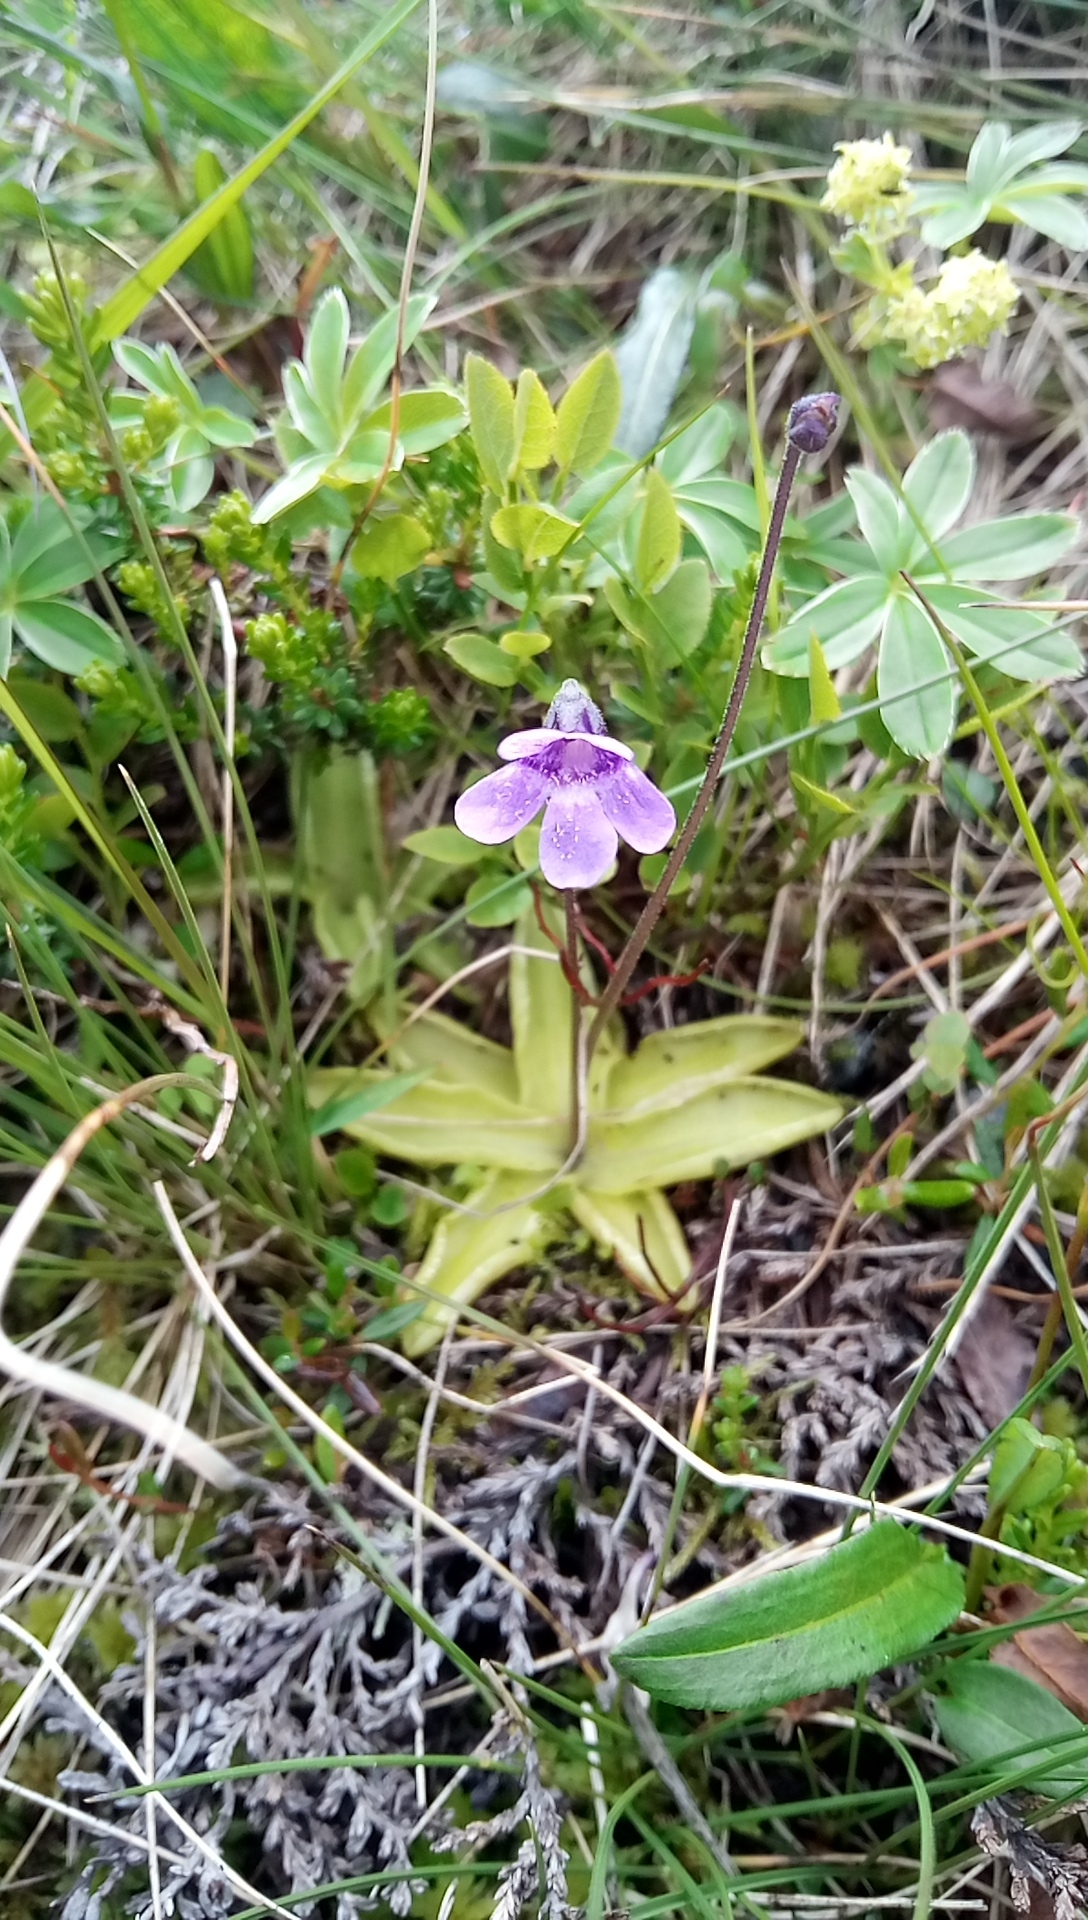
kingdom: Plantae
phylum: Tracheophyta
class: Magnoliopsida
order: Lamiales
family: Lentibulariaceae
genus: Pinguicula
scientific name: Pinguicula vulgaris
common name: Common butterwort
